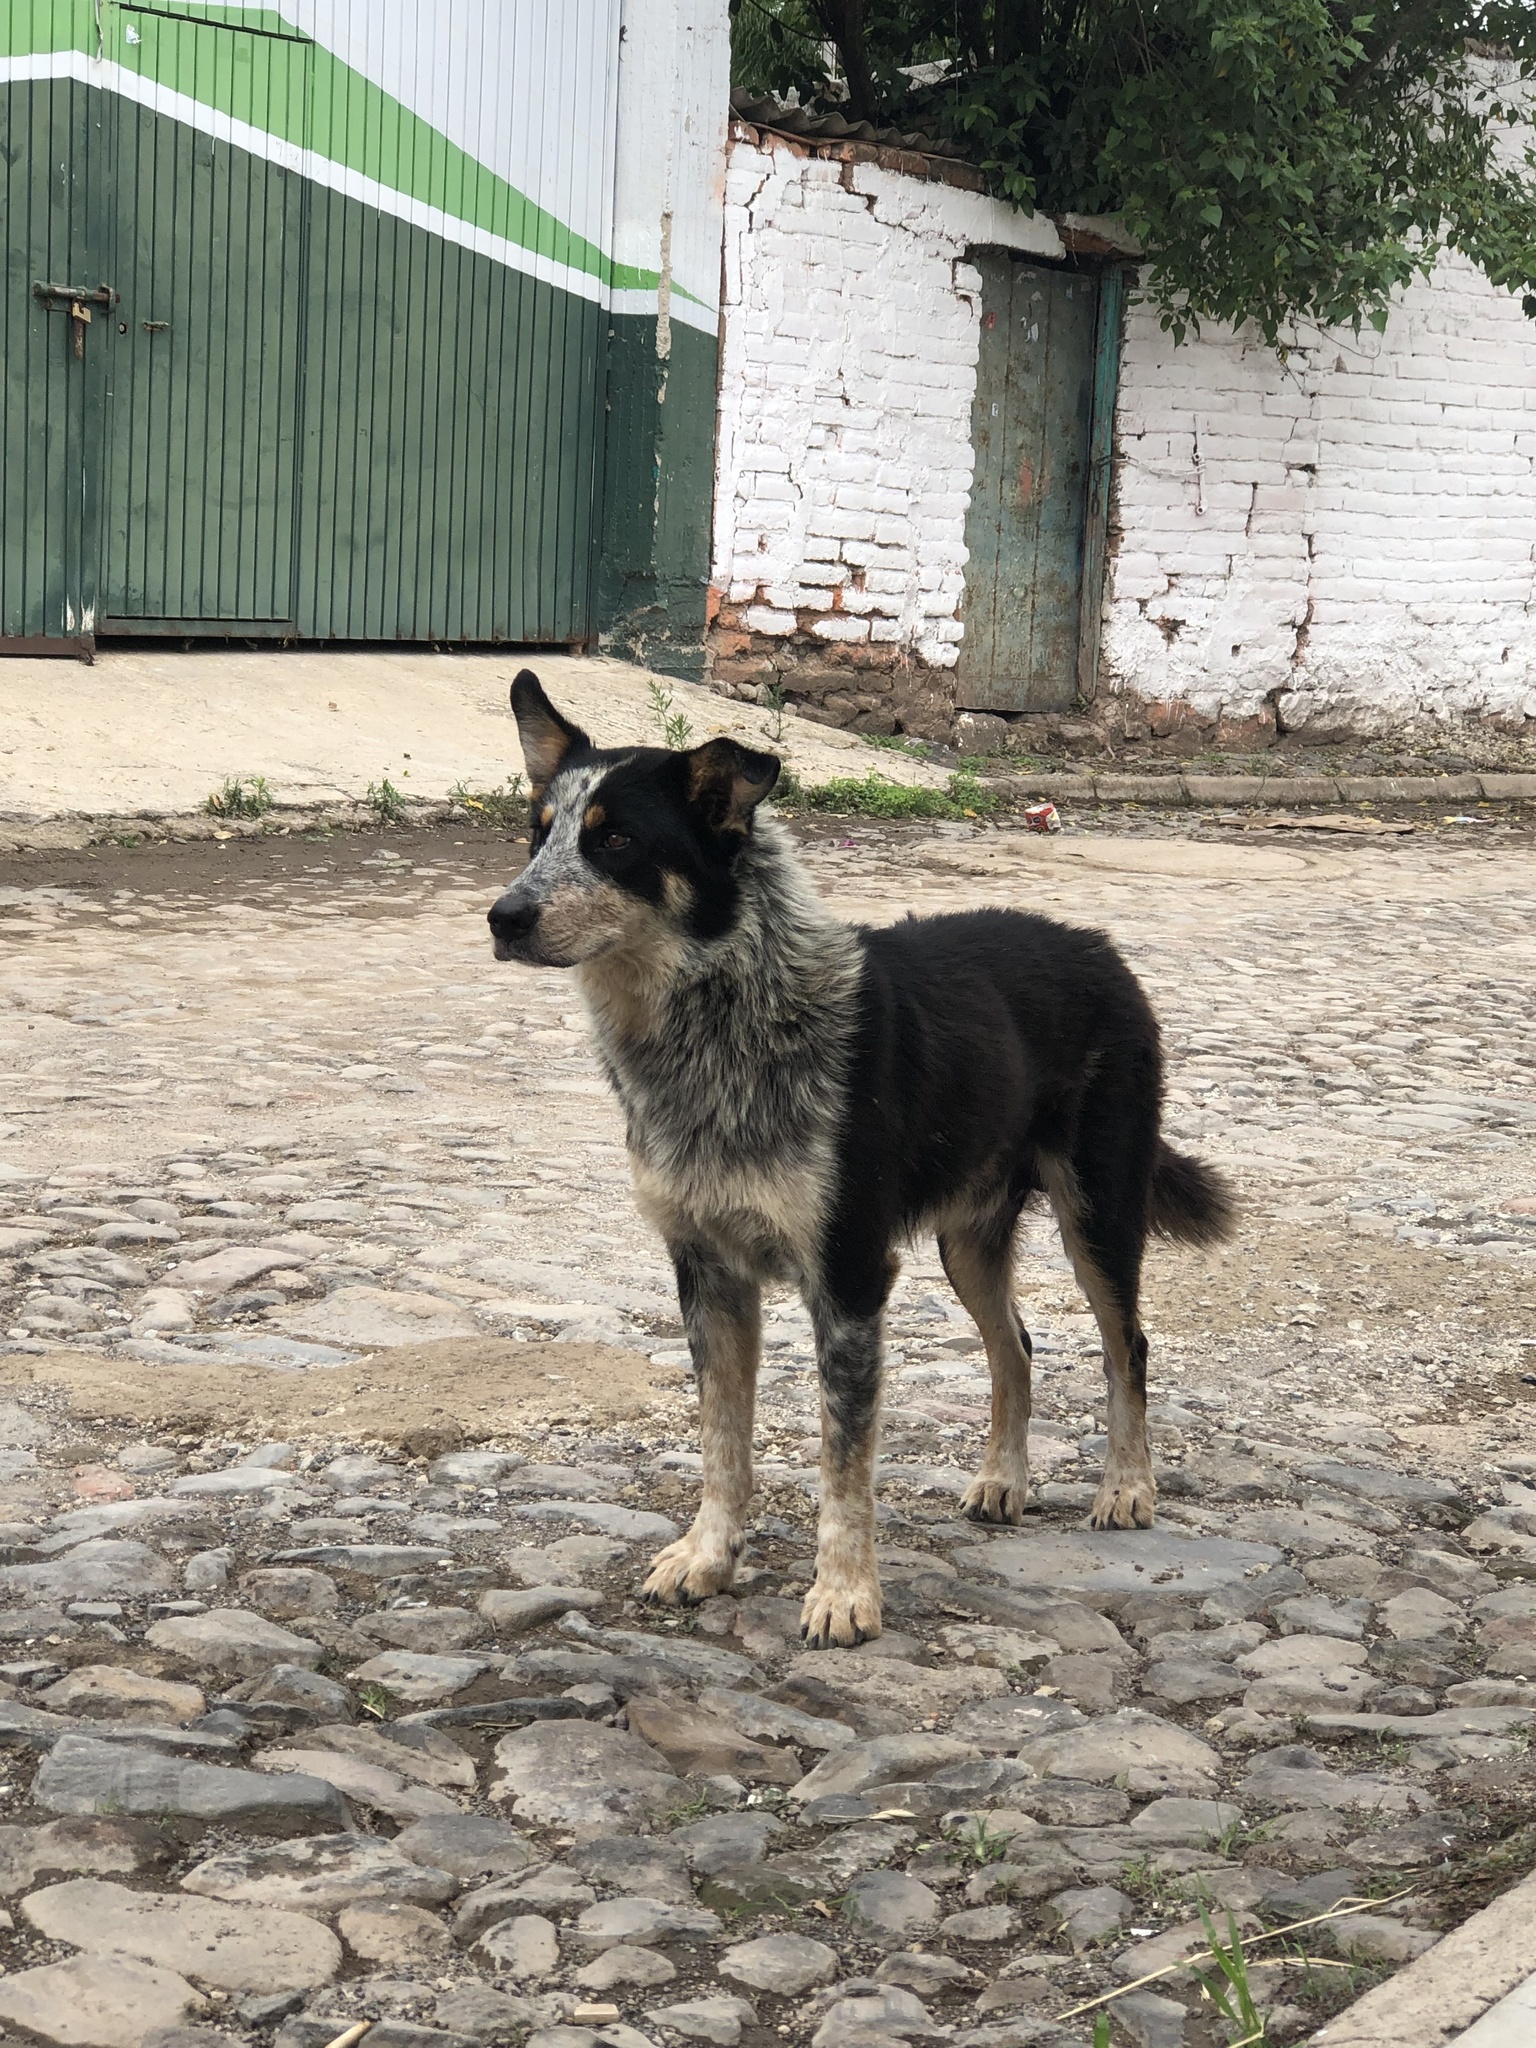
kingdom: Animalia
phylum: Chordata
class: Mammalia
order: Carnivora
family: Canidae
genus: Canis
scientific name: Canis lupus
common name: Gray wolf
